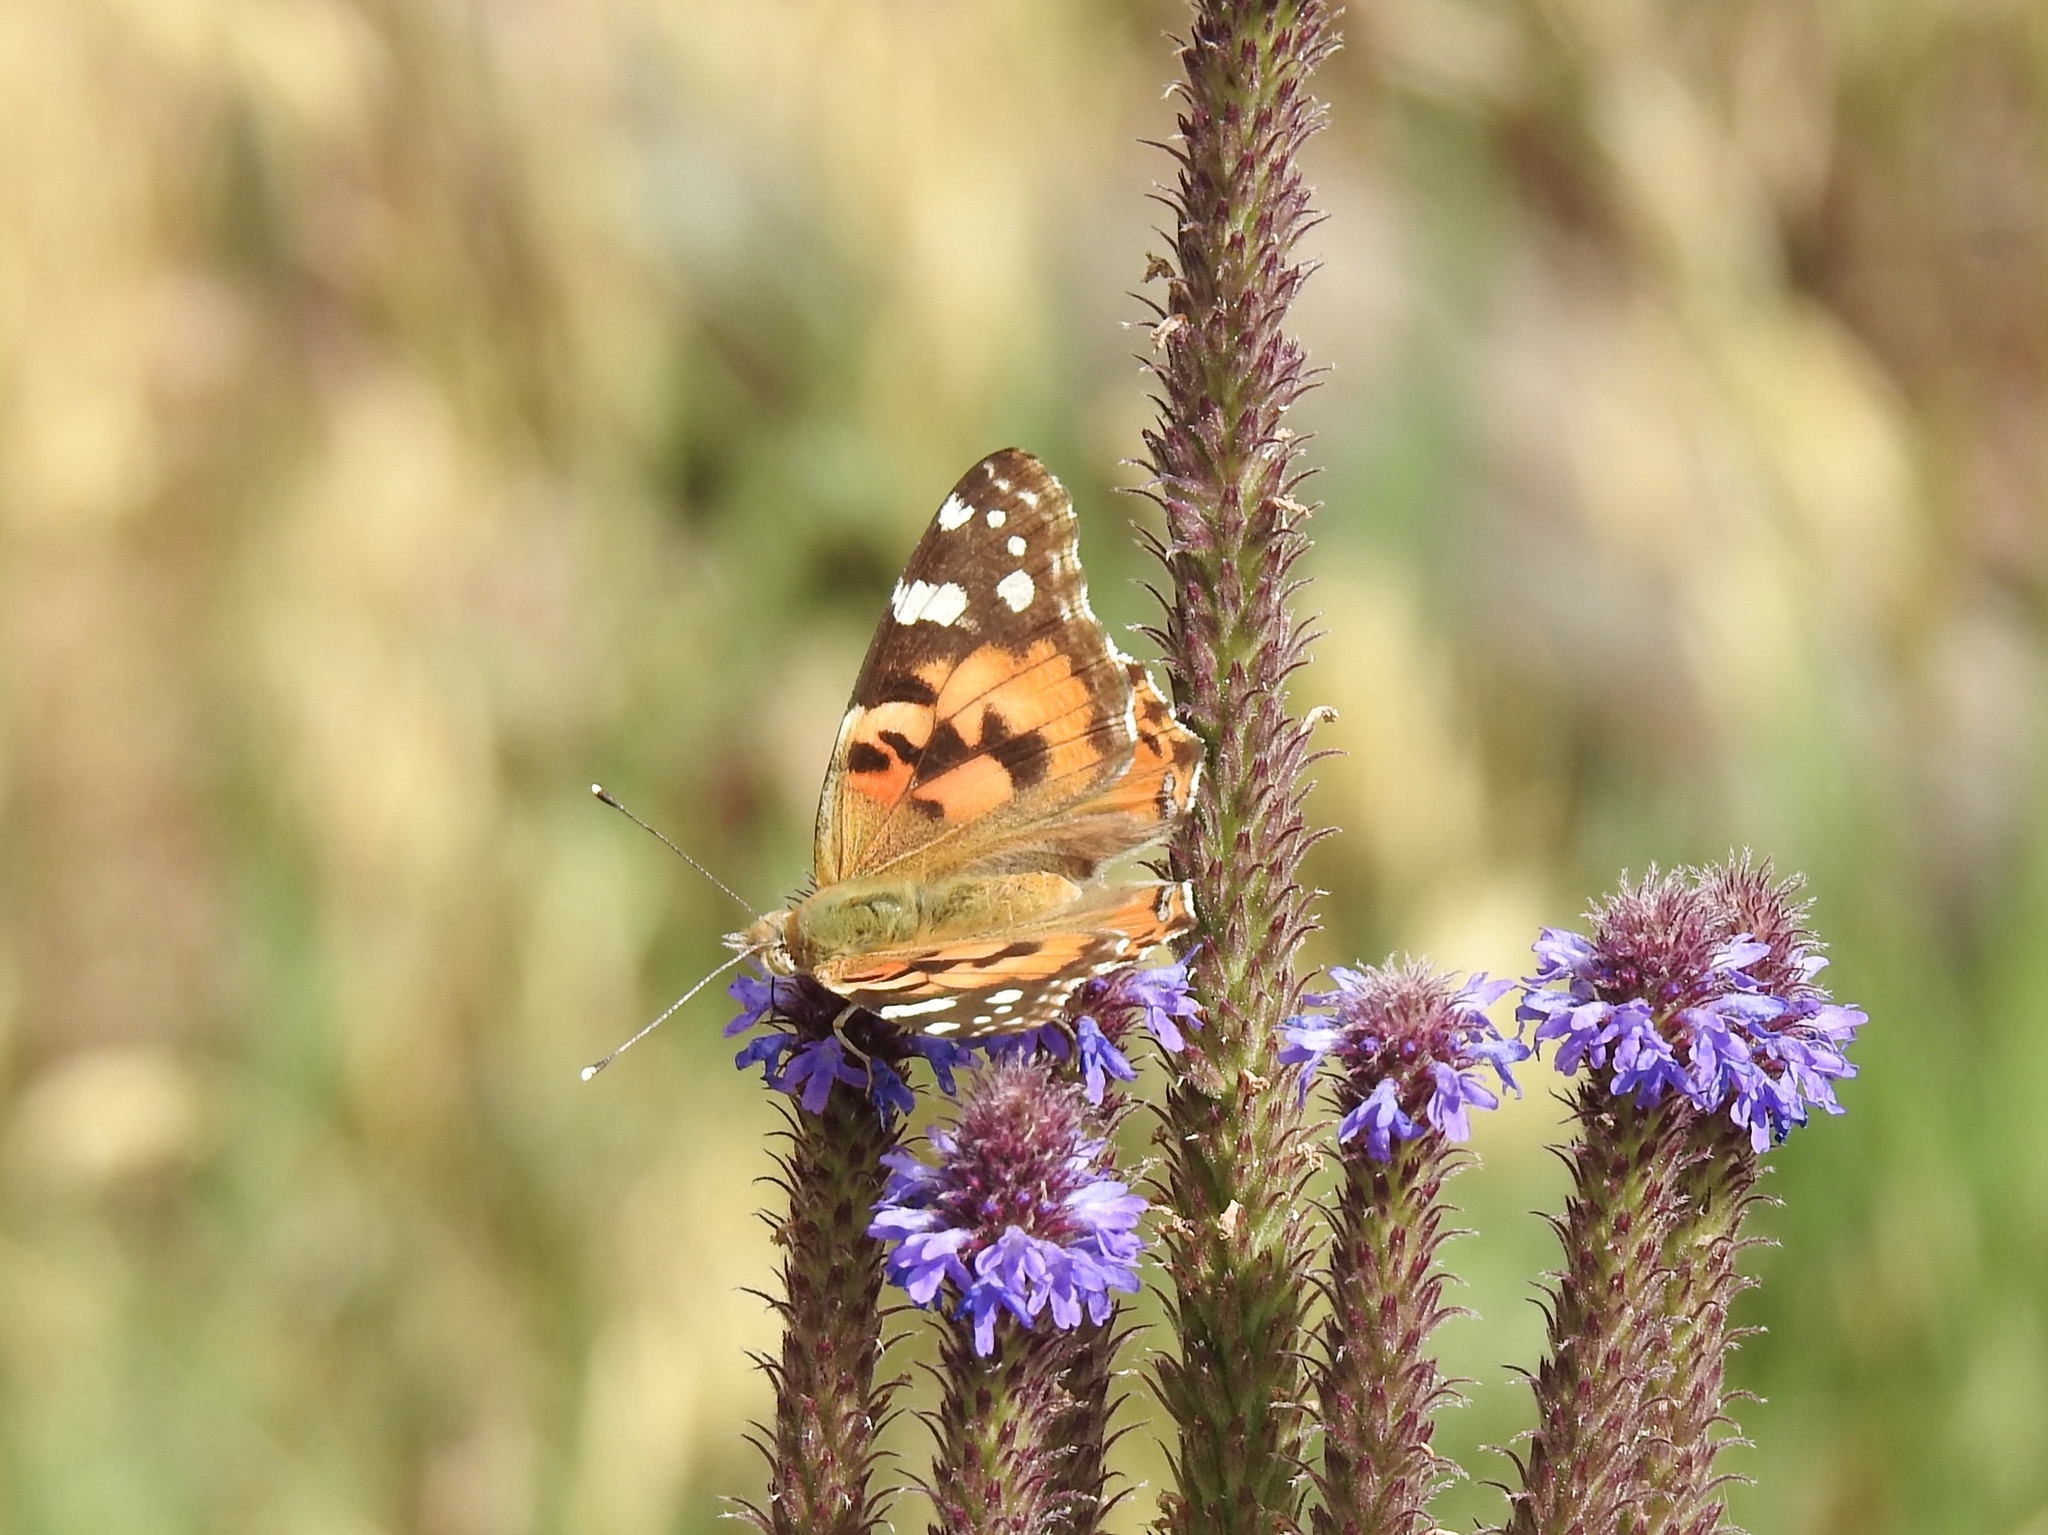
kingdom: Animalia
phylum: Arthropoda
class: Insecta
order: Lepidoptera
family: Nymphalidae
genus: Vanessa
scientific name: Vanessa cardui
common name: Painted lady
